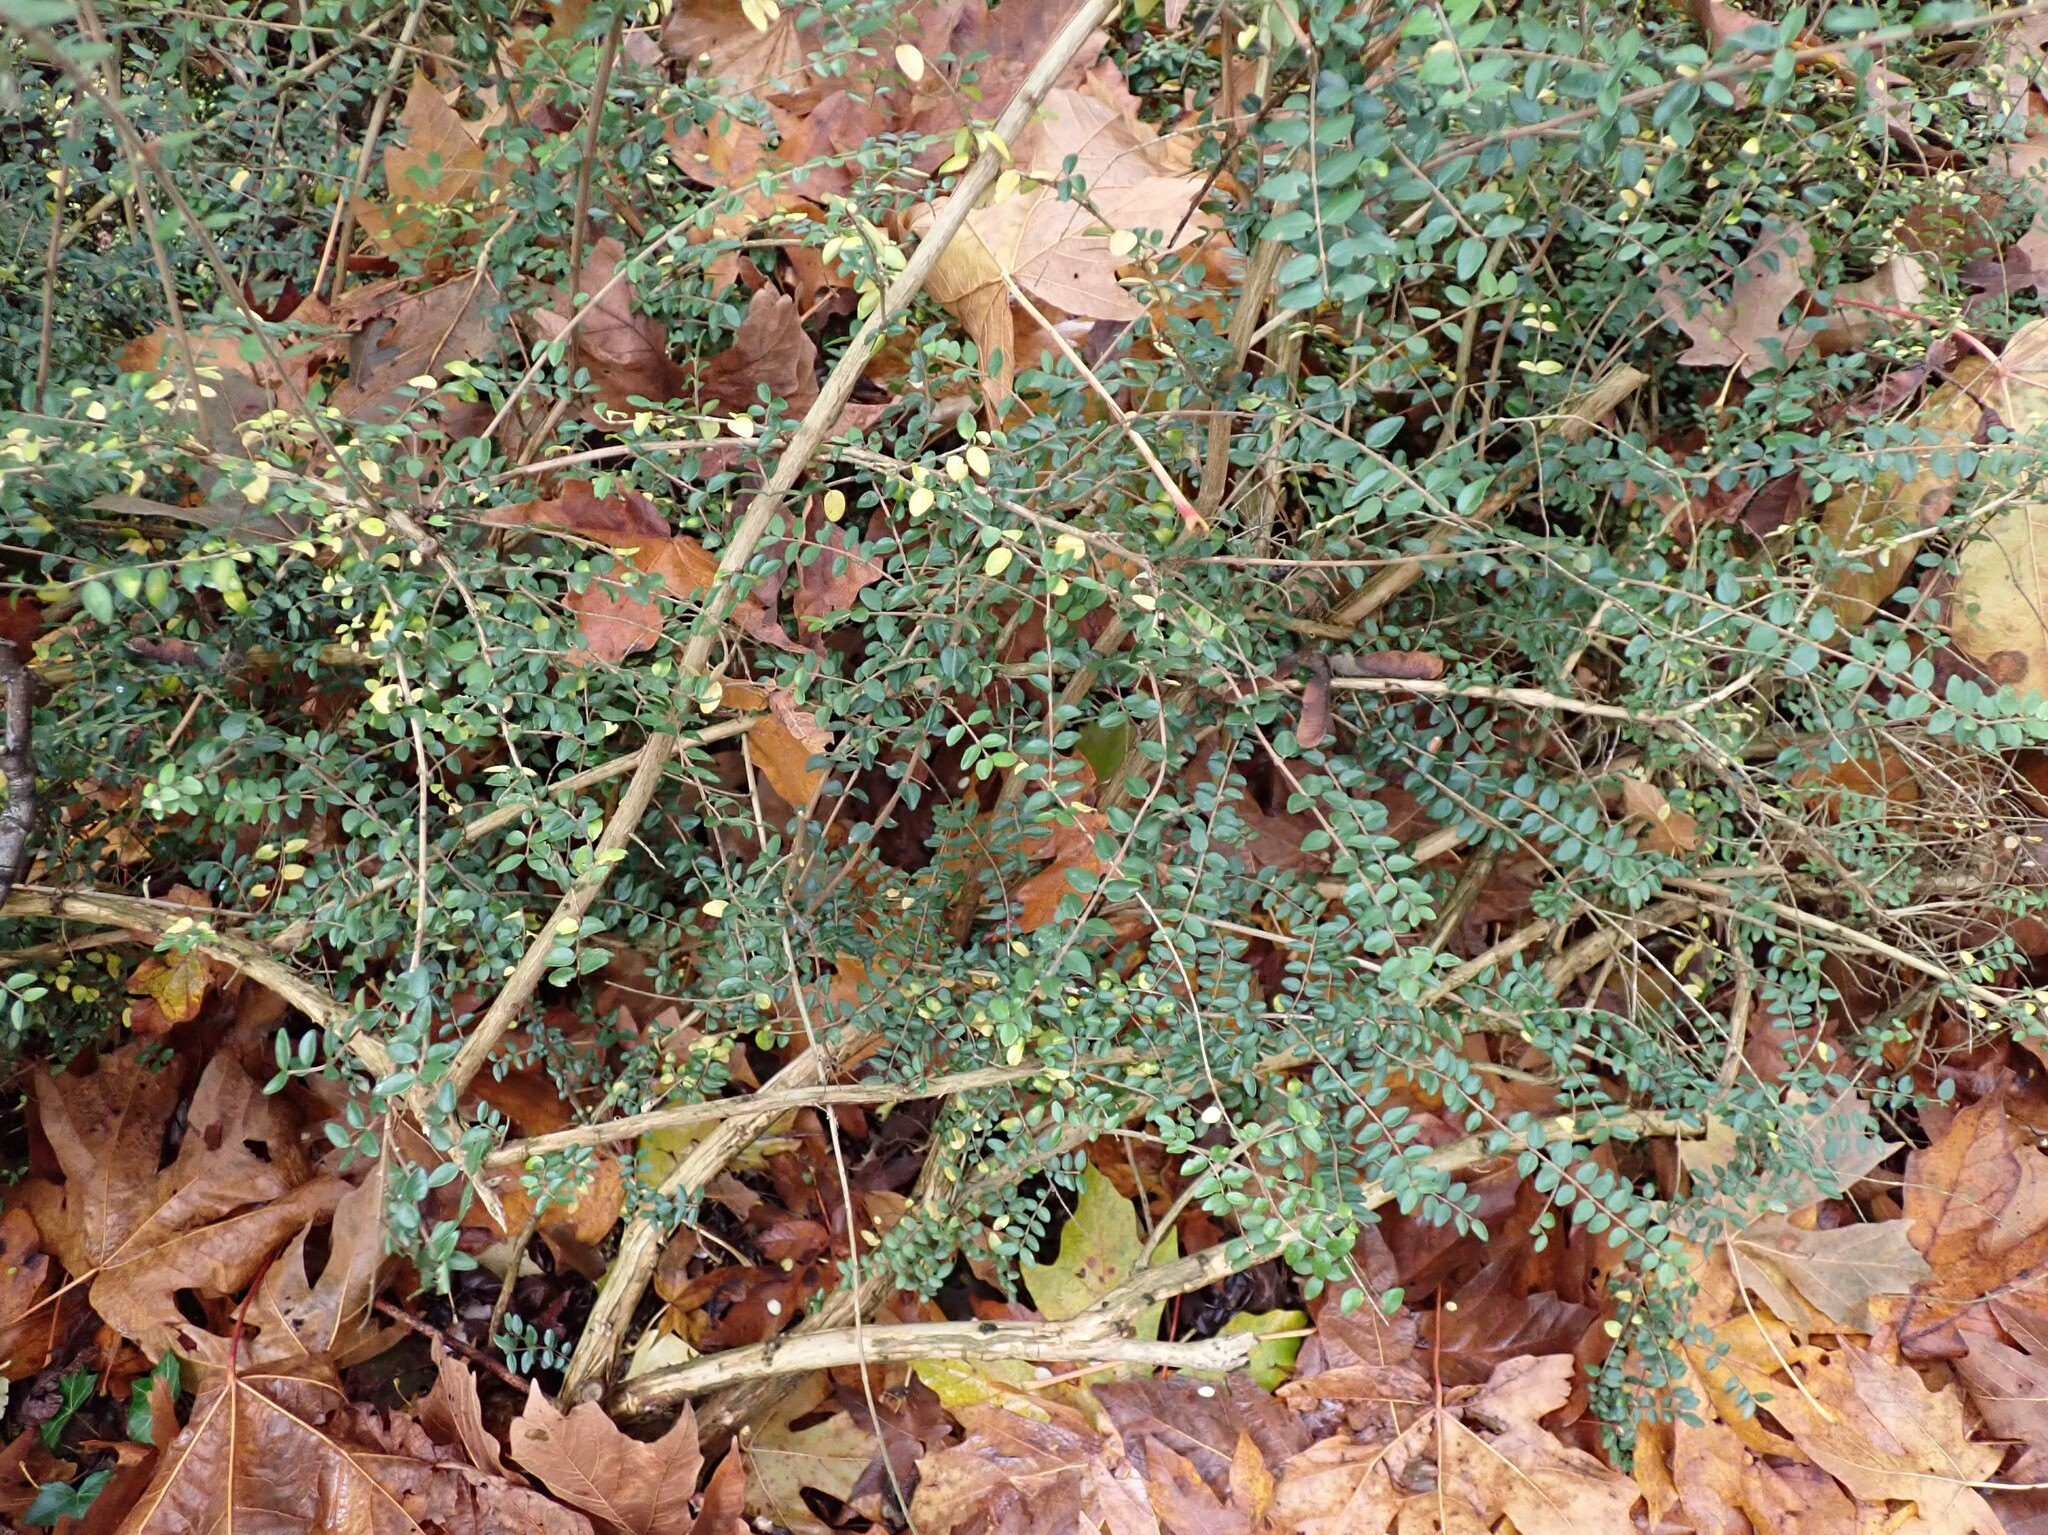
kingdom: Plantae
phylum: Tracheophyta
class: Magnoliopsida
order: Dipsacales
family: Caprifoliaceae
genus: Lonicera
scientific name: Lonicera ligustrina
